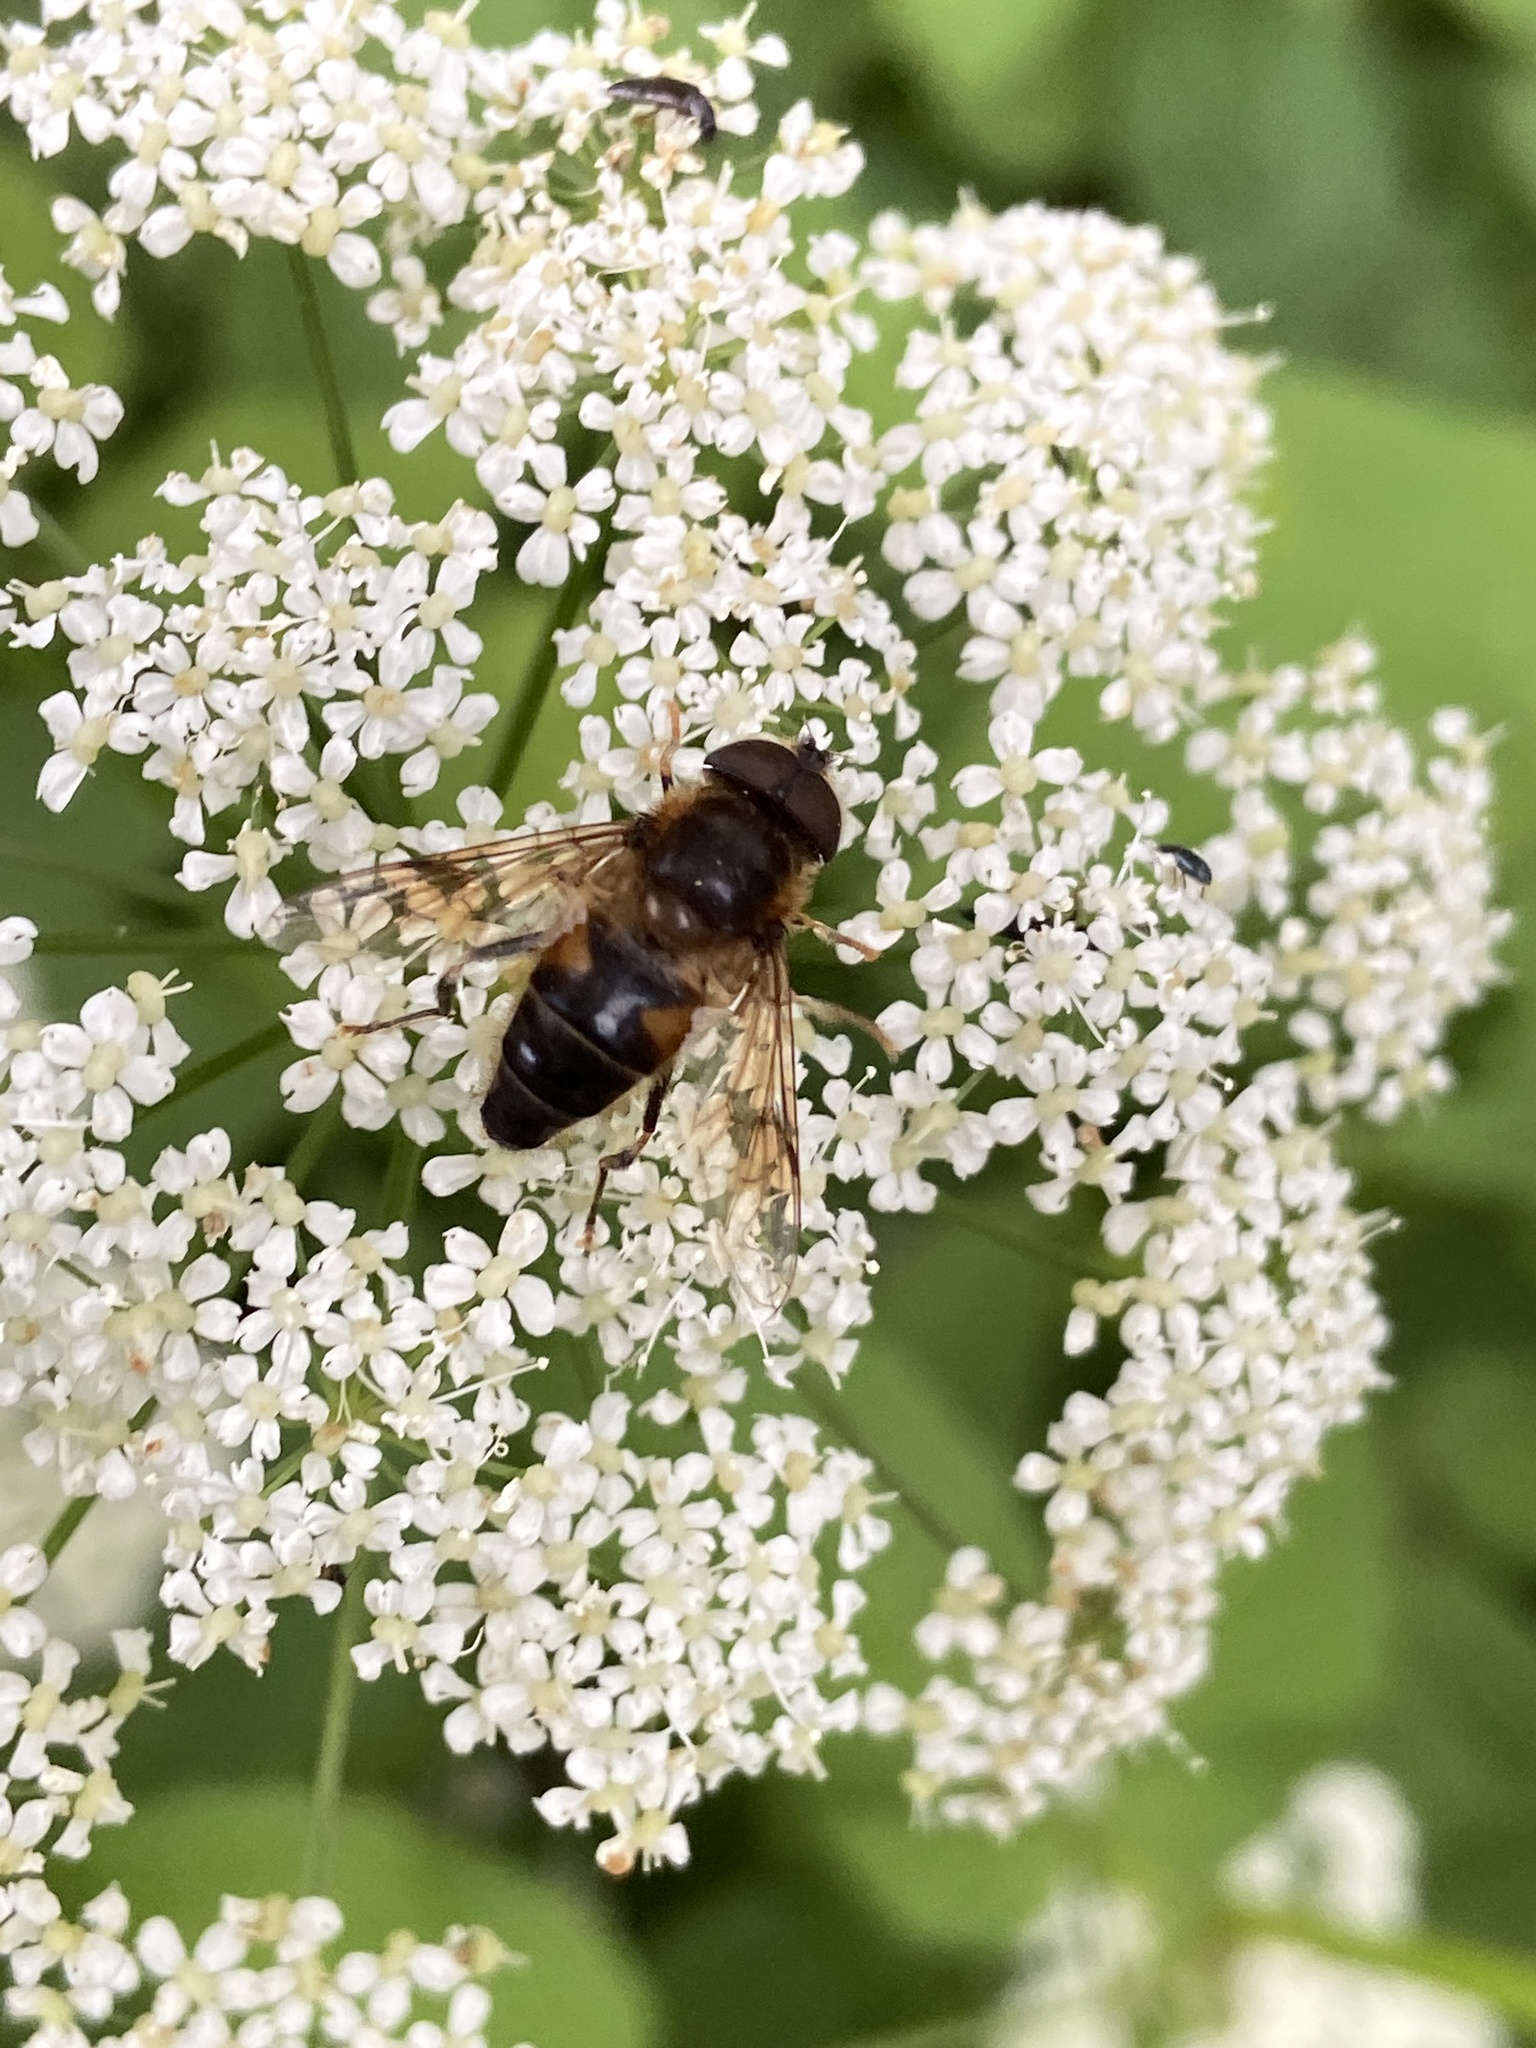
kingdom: Animalia
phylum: Arthropoda
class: Insecta
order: Diptera
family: Syrphidae
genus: Eristalis
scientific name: Eristalis pertinax
